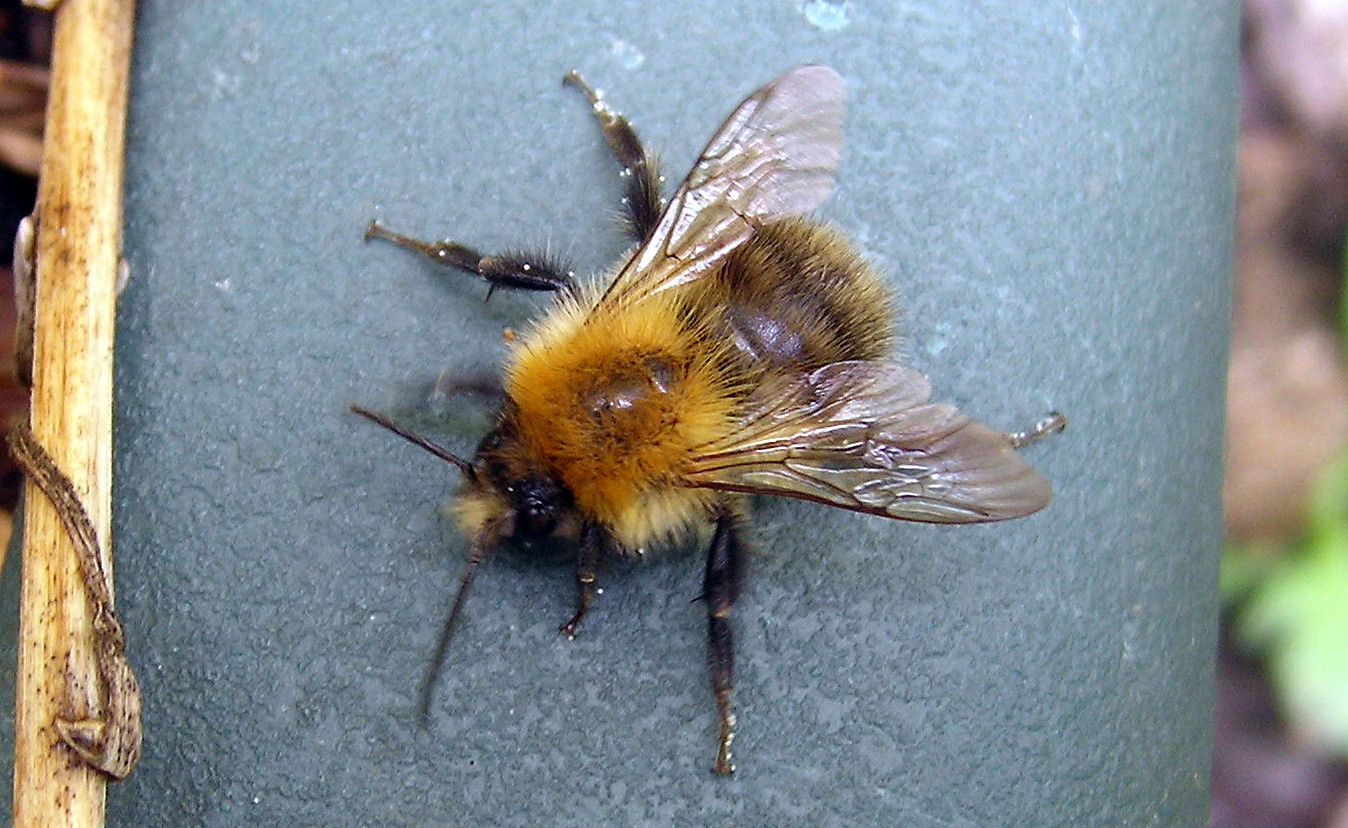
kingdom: Animalia
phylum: Arthropoda
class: Insecta
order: Hymenoptera
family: Apidae
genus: Bombus
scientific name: Bombus pascuorum
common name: Common carder bee
